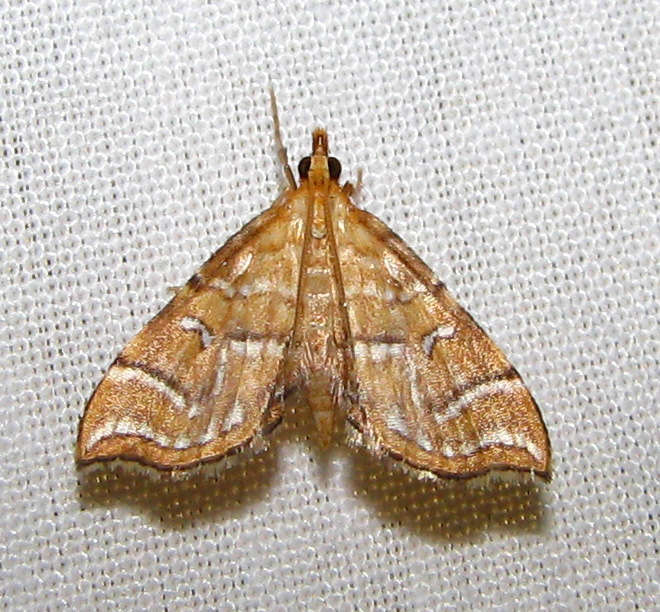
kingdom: Animalia
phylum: Arthropoda
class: Insecta
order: Lepidoptera
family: Pyralidae
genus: Musotima
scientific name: Musotima ochropteralis
